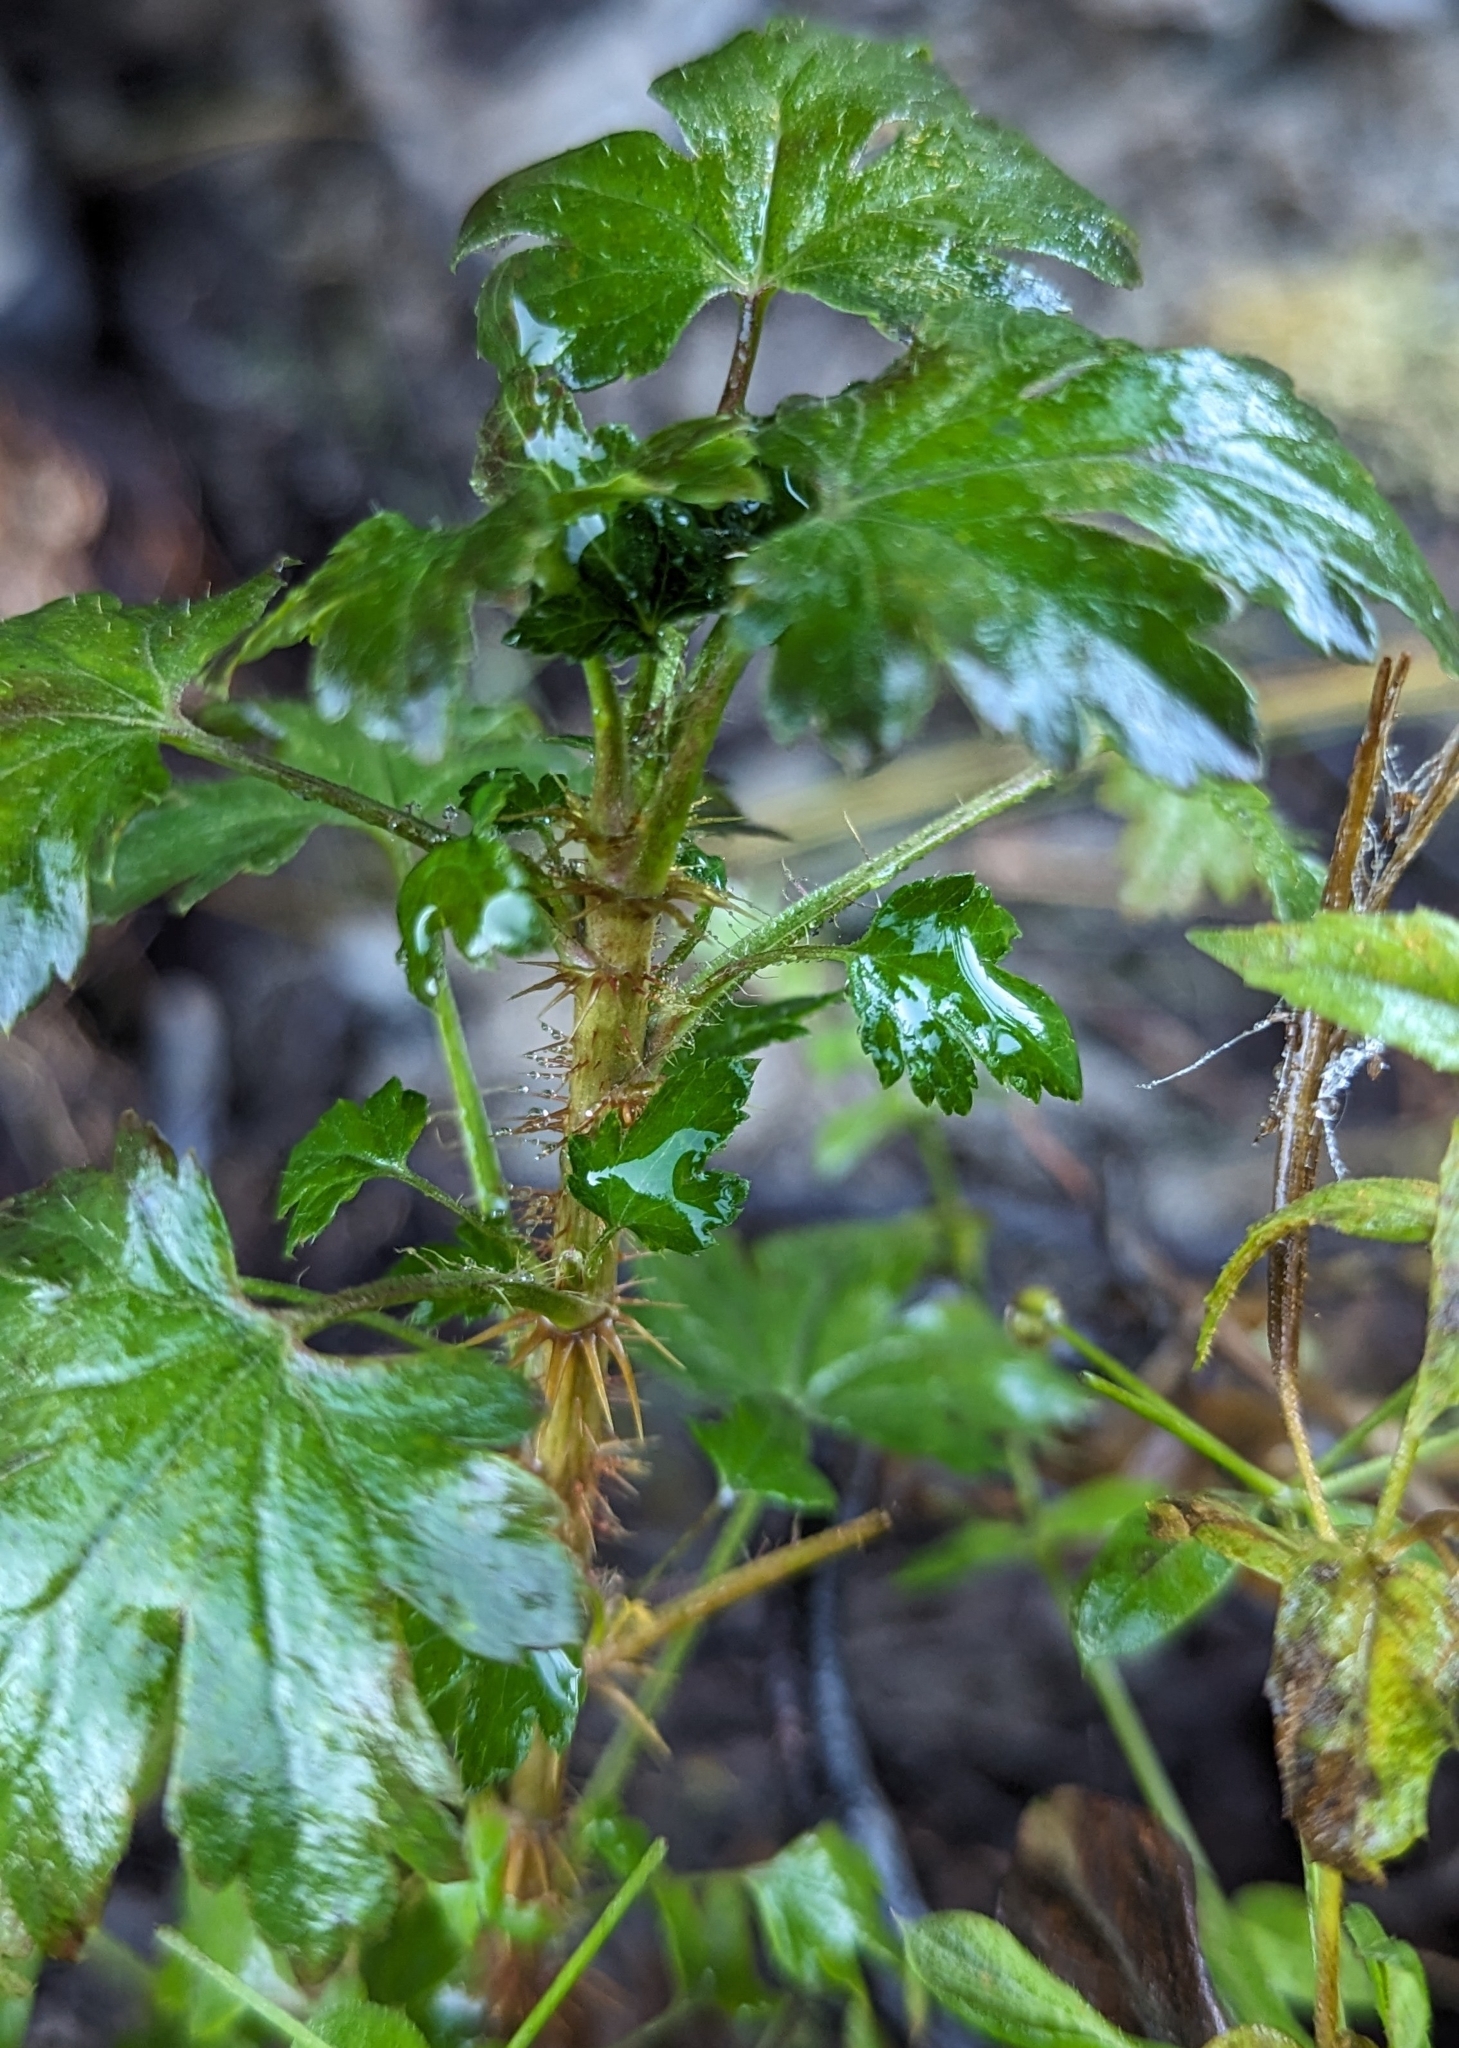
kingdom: Plantae
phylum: Tracheophyta
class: Magnoliopsida
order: Saxifragales
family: Grossulariaceae
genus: Ribes
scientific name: Ribes lacustre
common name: Black gooseberry
